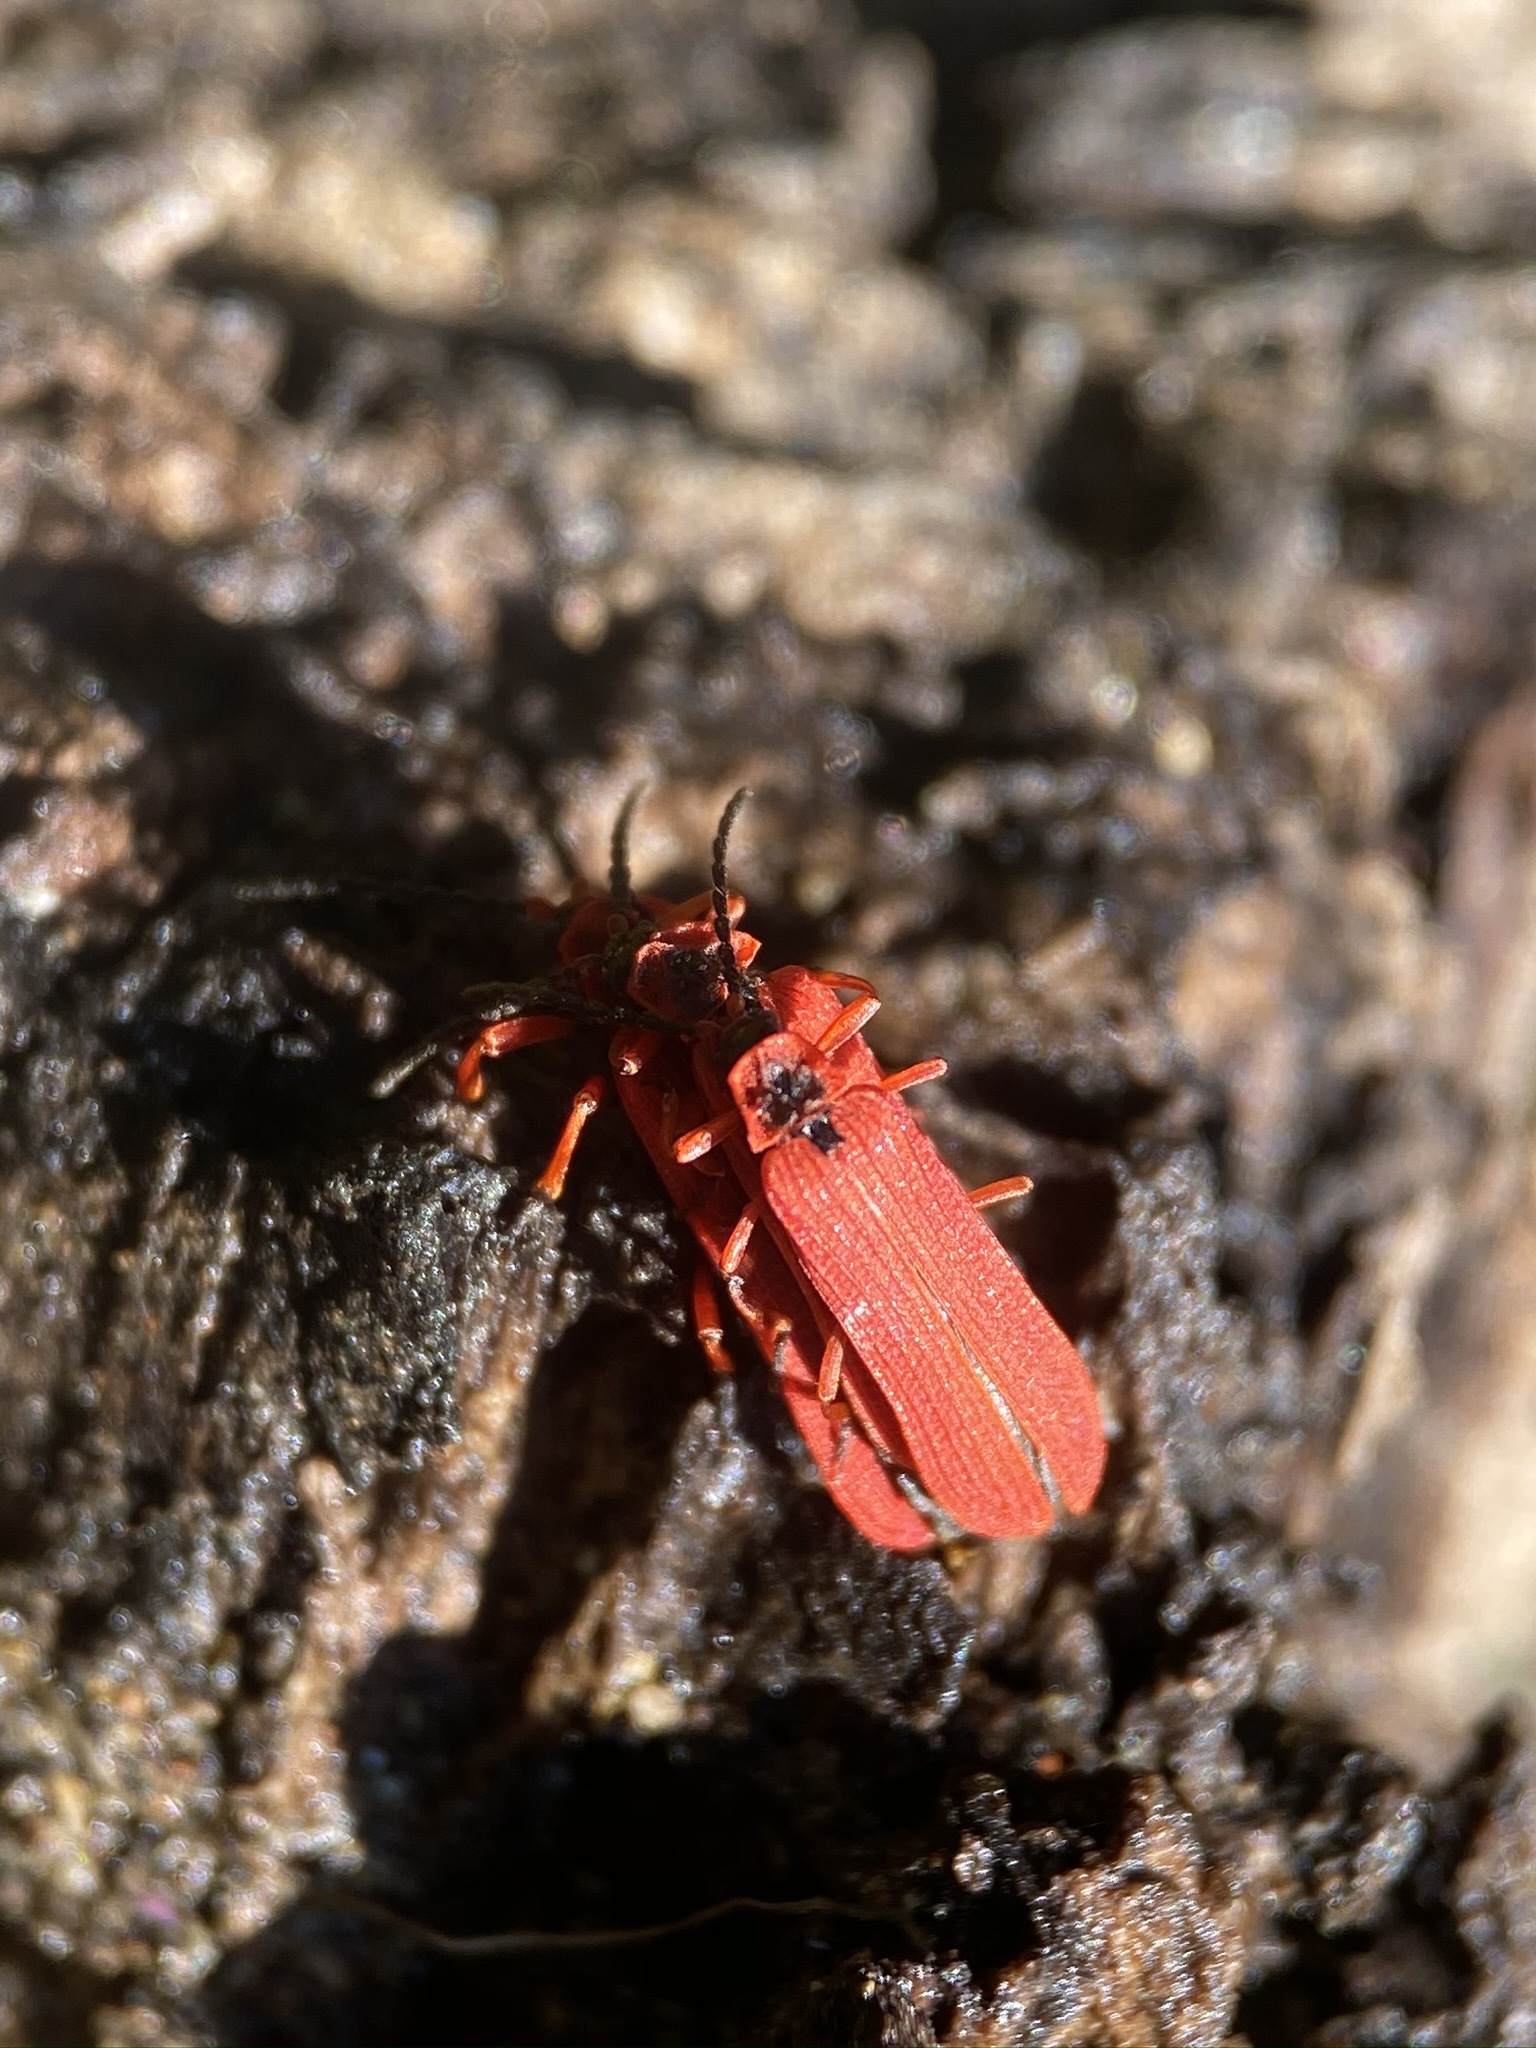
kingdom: Animalia
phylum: Arthropoda
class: Insecta
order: Coleoptera
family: Lycidae
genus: Dictyoptera
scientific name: Dictyoptera simplicipes
